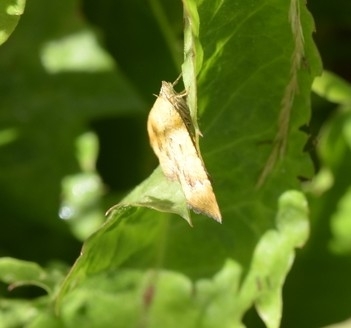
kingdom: Animalia
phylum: Arthropoda
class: Insecta
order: Lepidoptera
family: Geometridae
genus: Camptogramma
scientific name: Camptogramma bilineata
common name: Yellow shell
